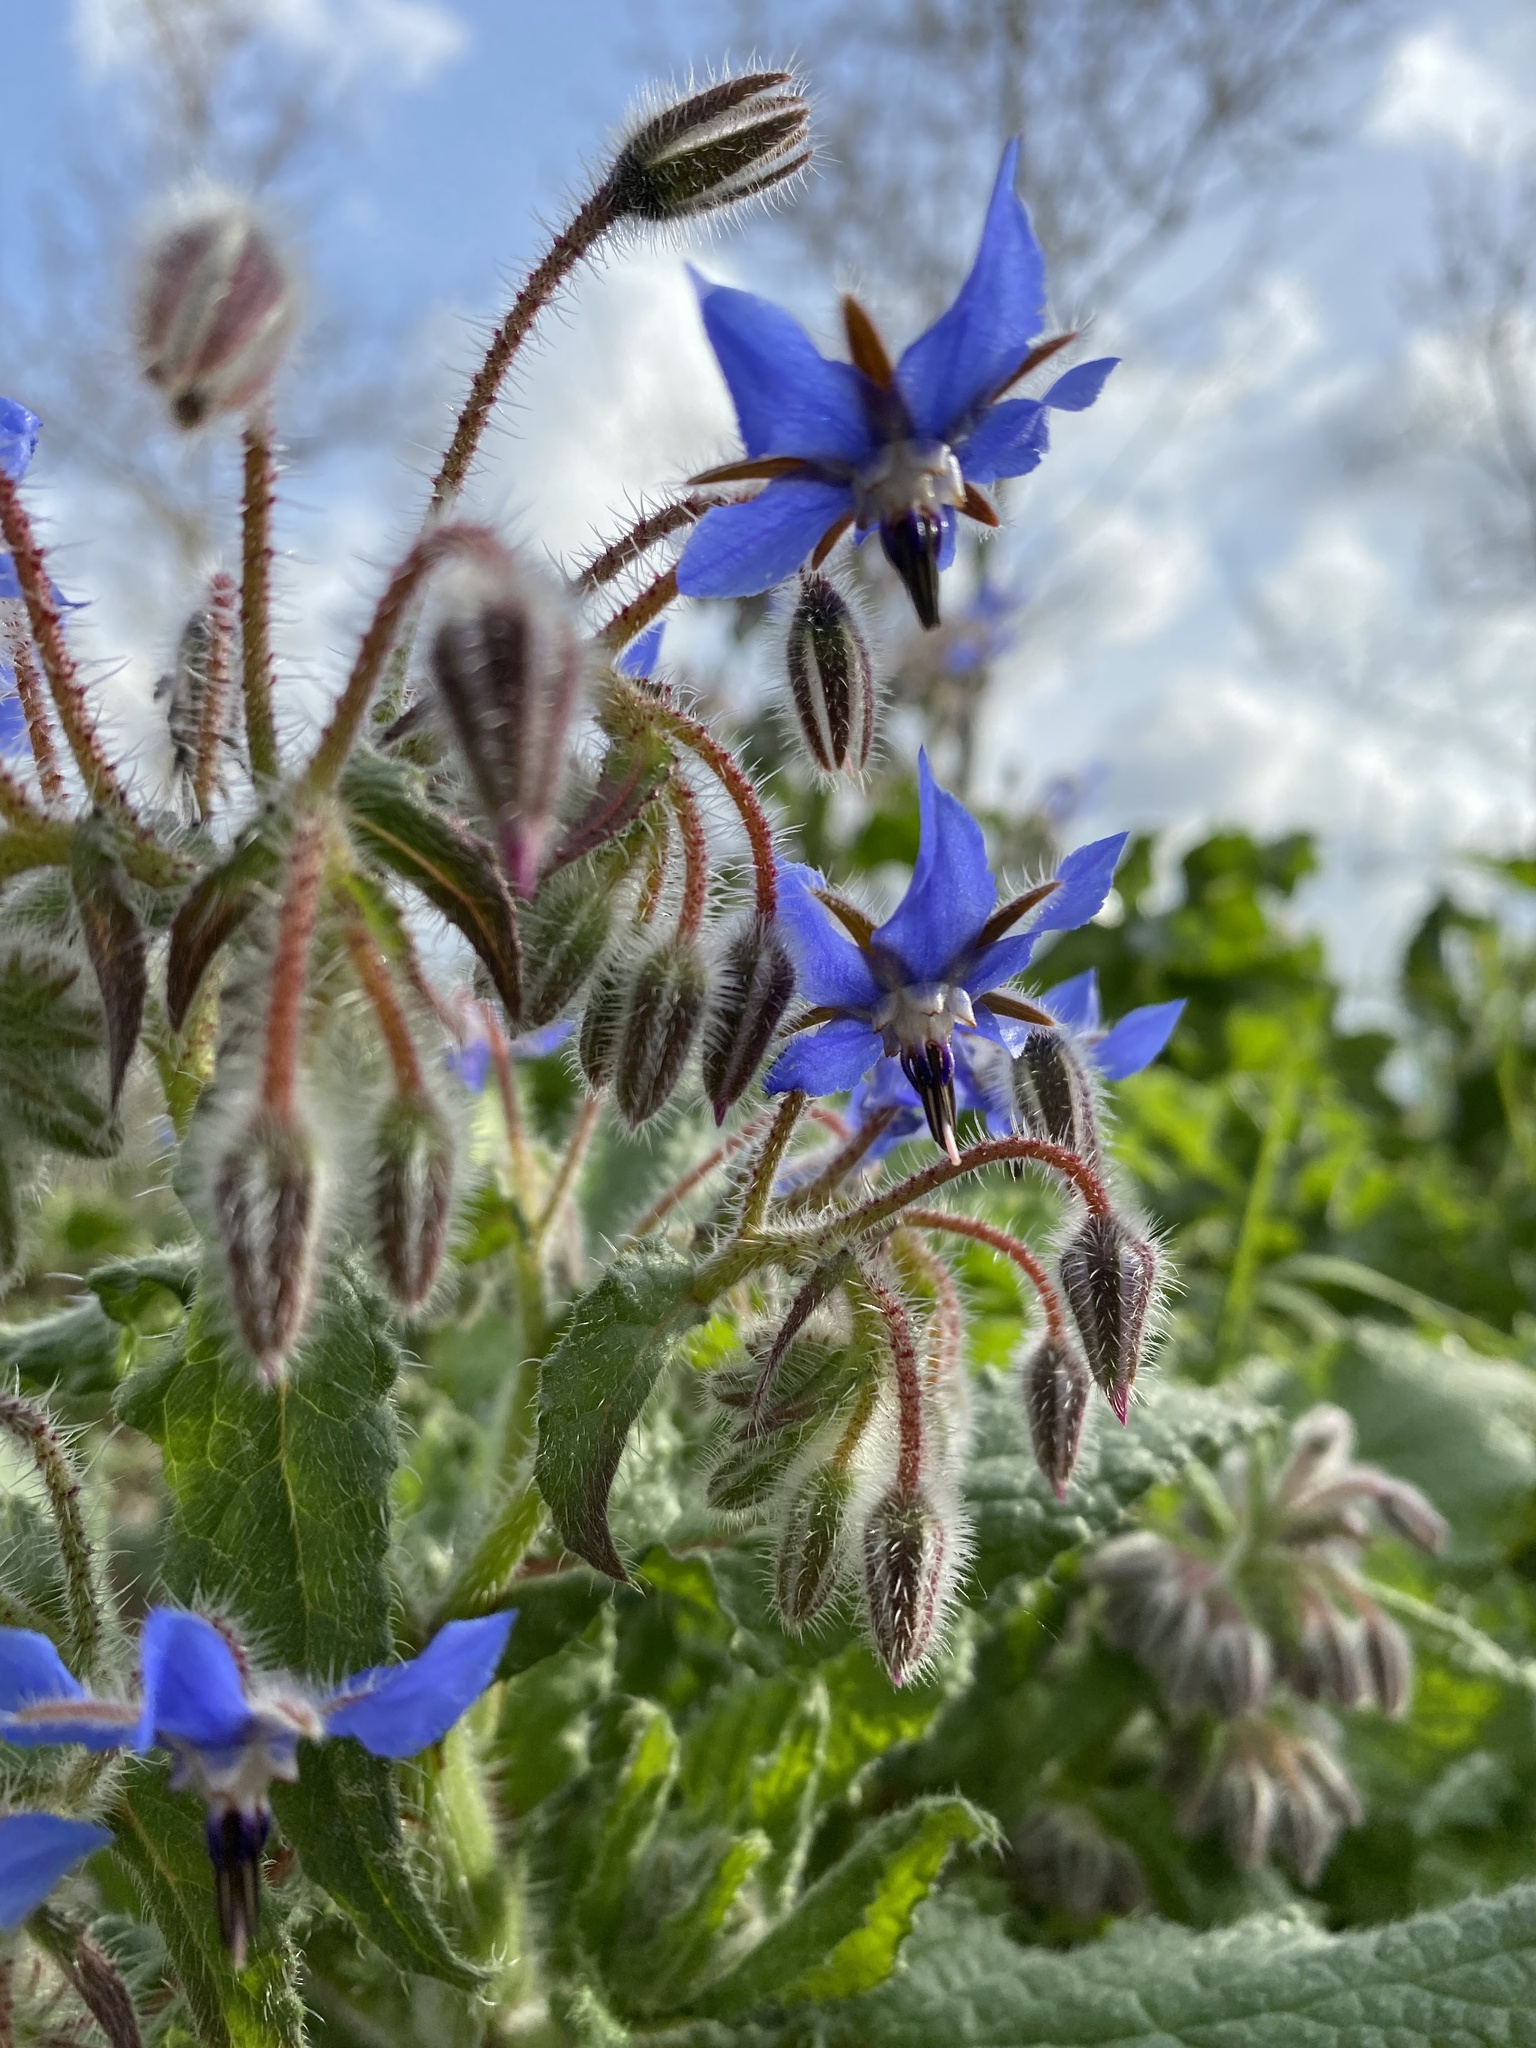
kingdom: Plantae
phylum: Tracheophyta
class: Magnoliopsida
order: Boraginales
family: Boraginaceae
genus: Borago
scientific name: Borago officinalis
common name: Borage
